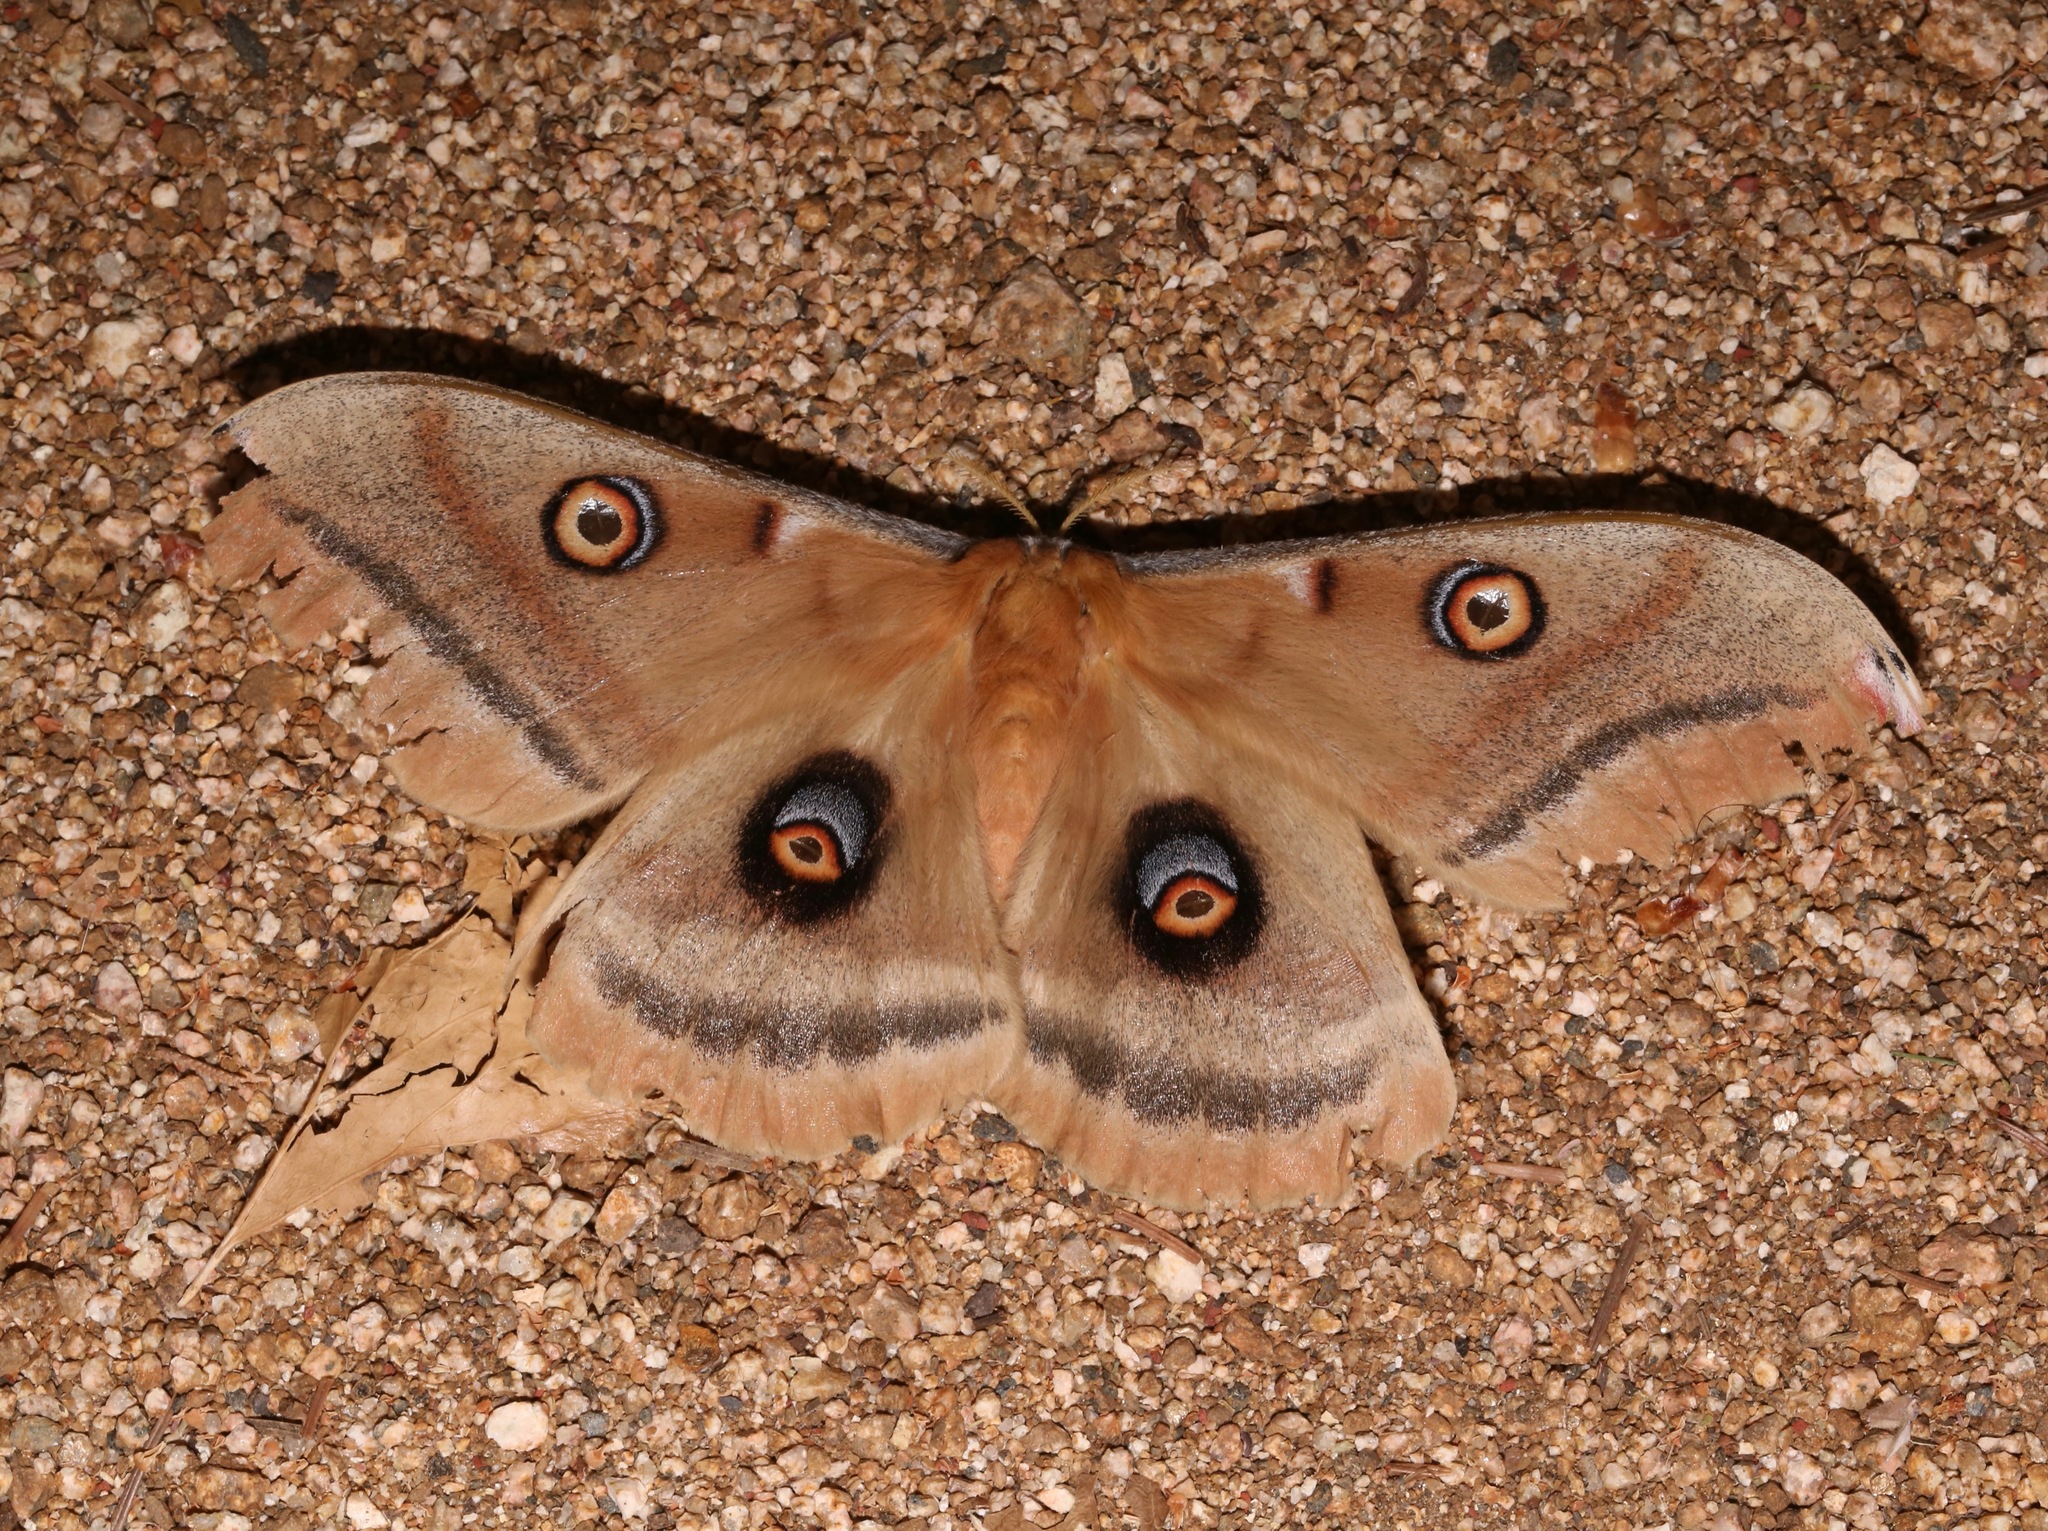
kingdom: Animalia
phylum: Arthropoda
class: Insecta
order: Lepidoptera
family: Saturniidae
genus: Antheraea
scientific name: Antheraea oculea
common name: Arizona polyphemus moth
